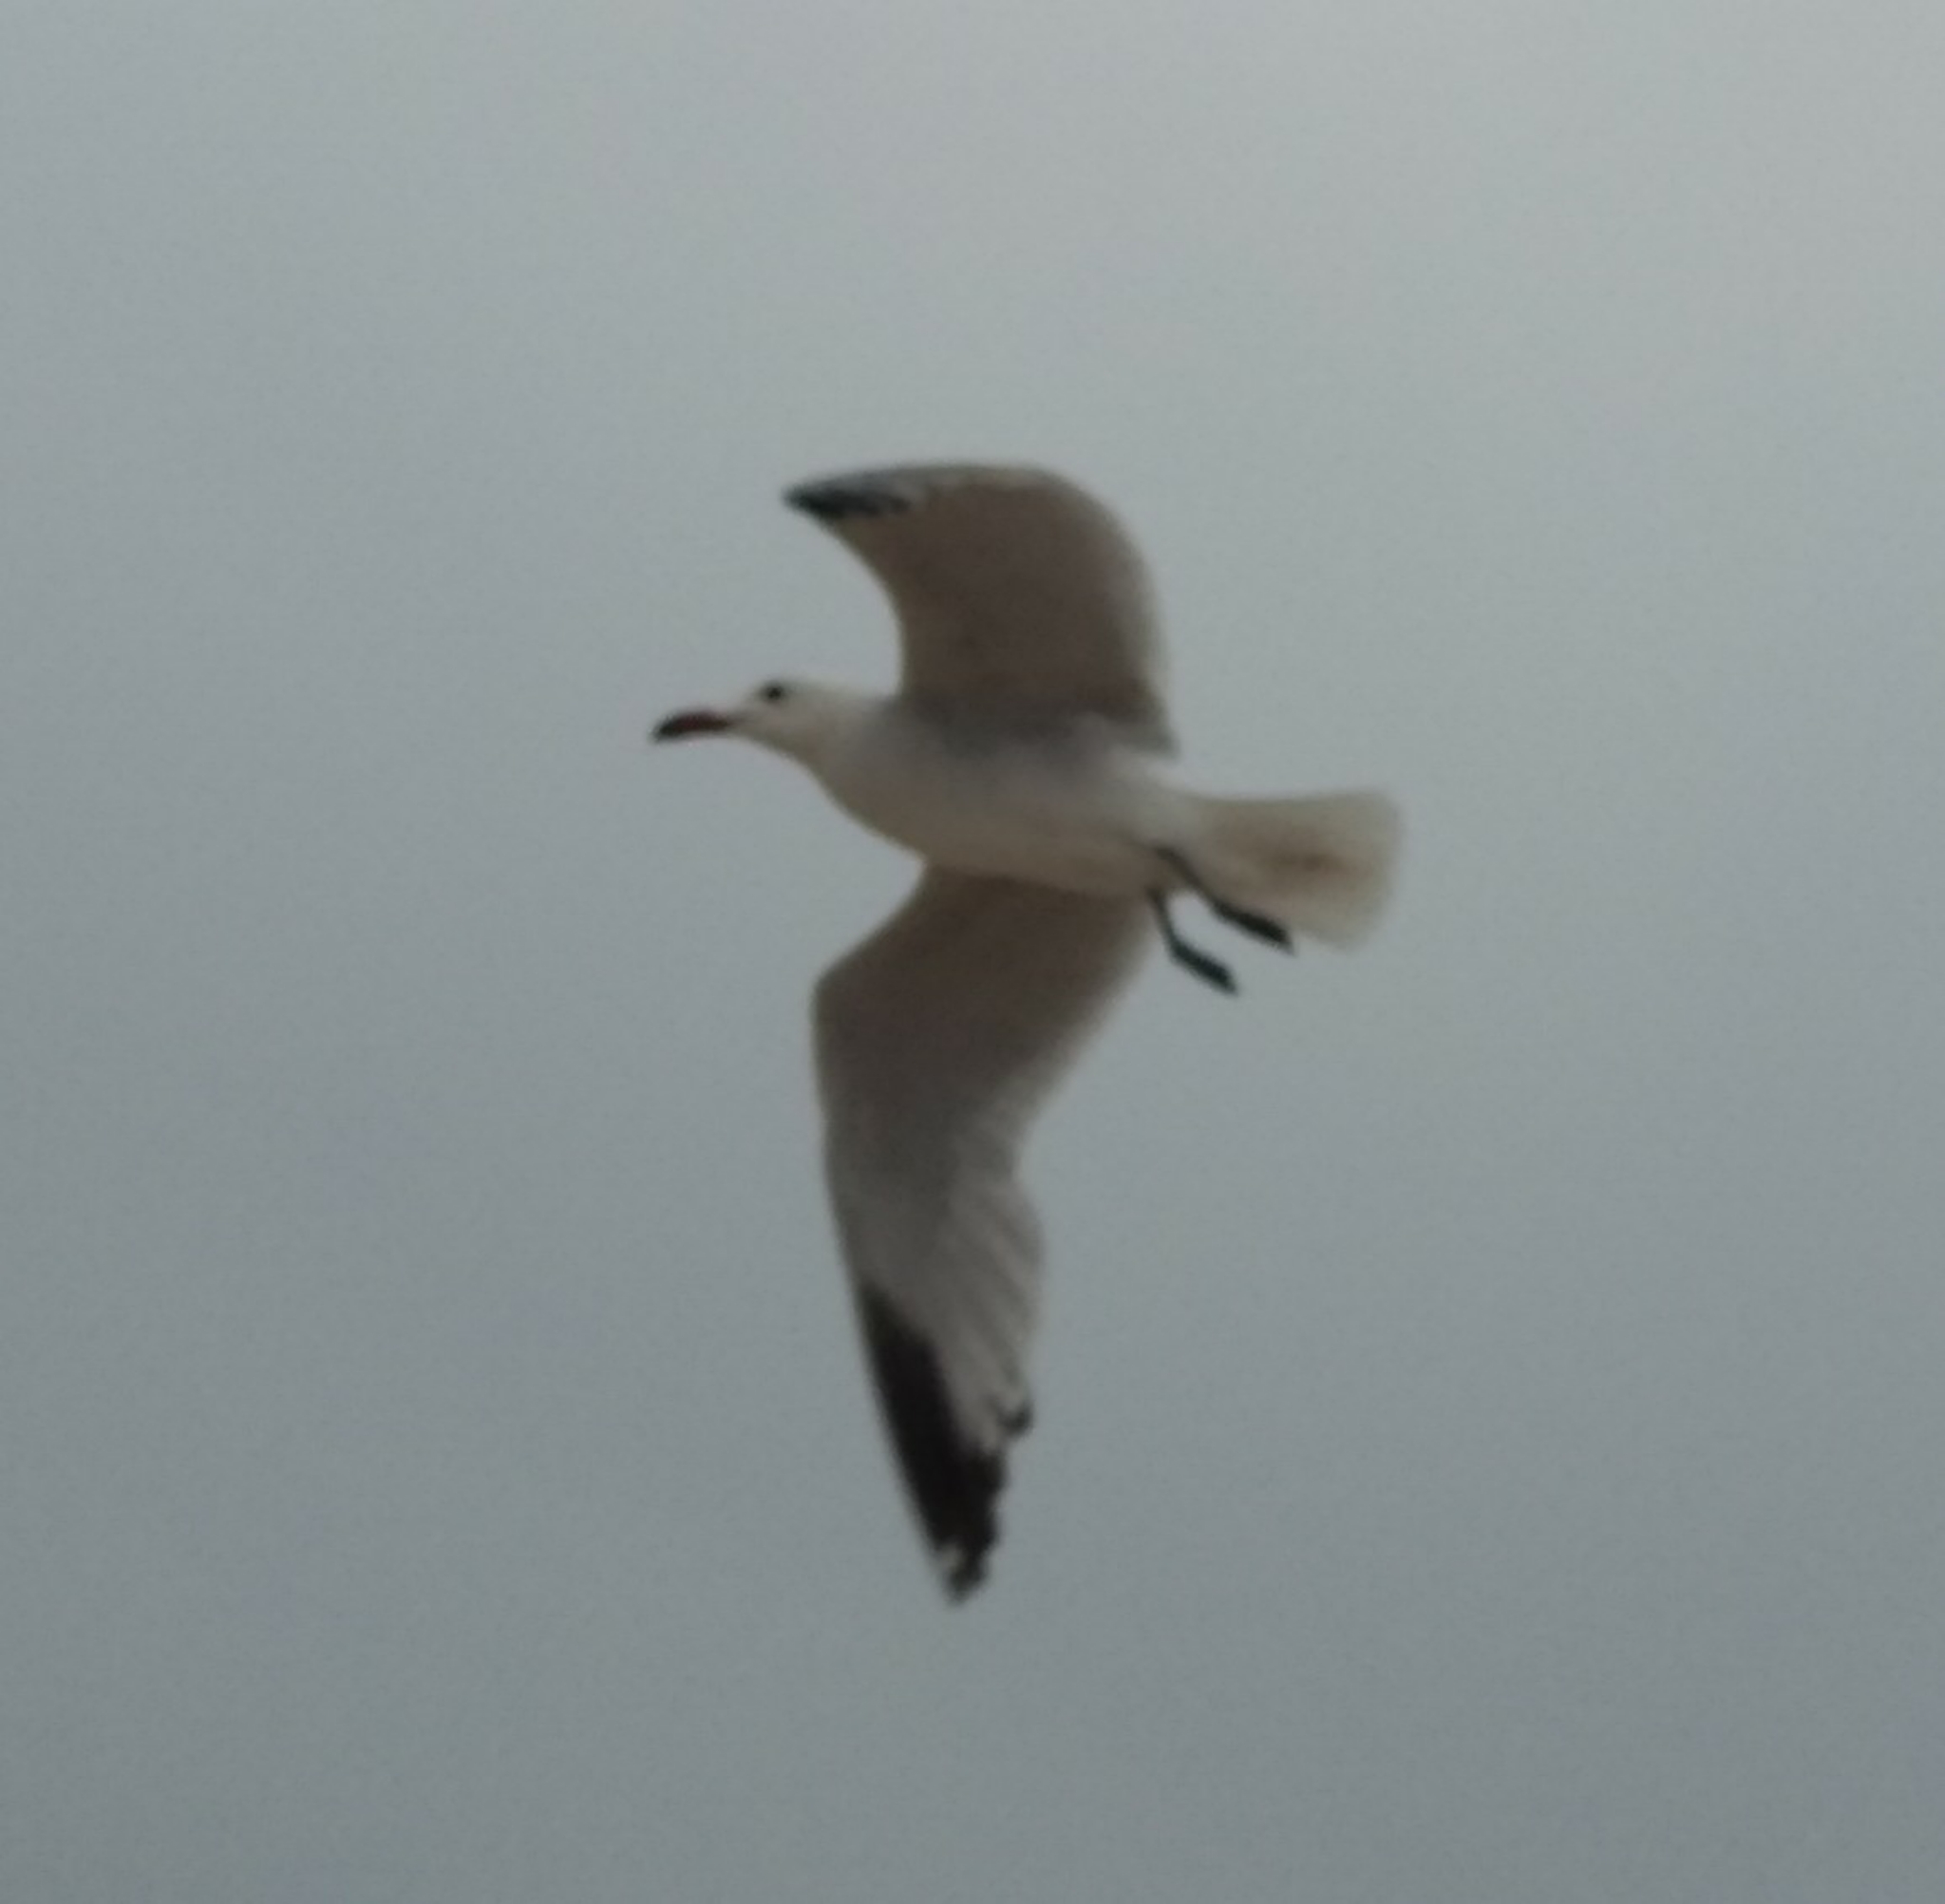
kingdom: Animalia
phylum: Chordata
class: Aves
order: Charadriiformes
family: Laridae
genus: Ichthyaetus
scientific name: Ichthyaetus audouinii
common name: Audouin's gull
